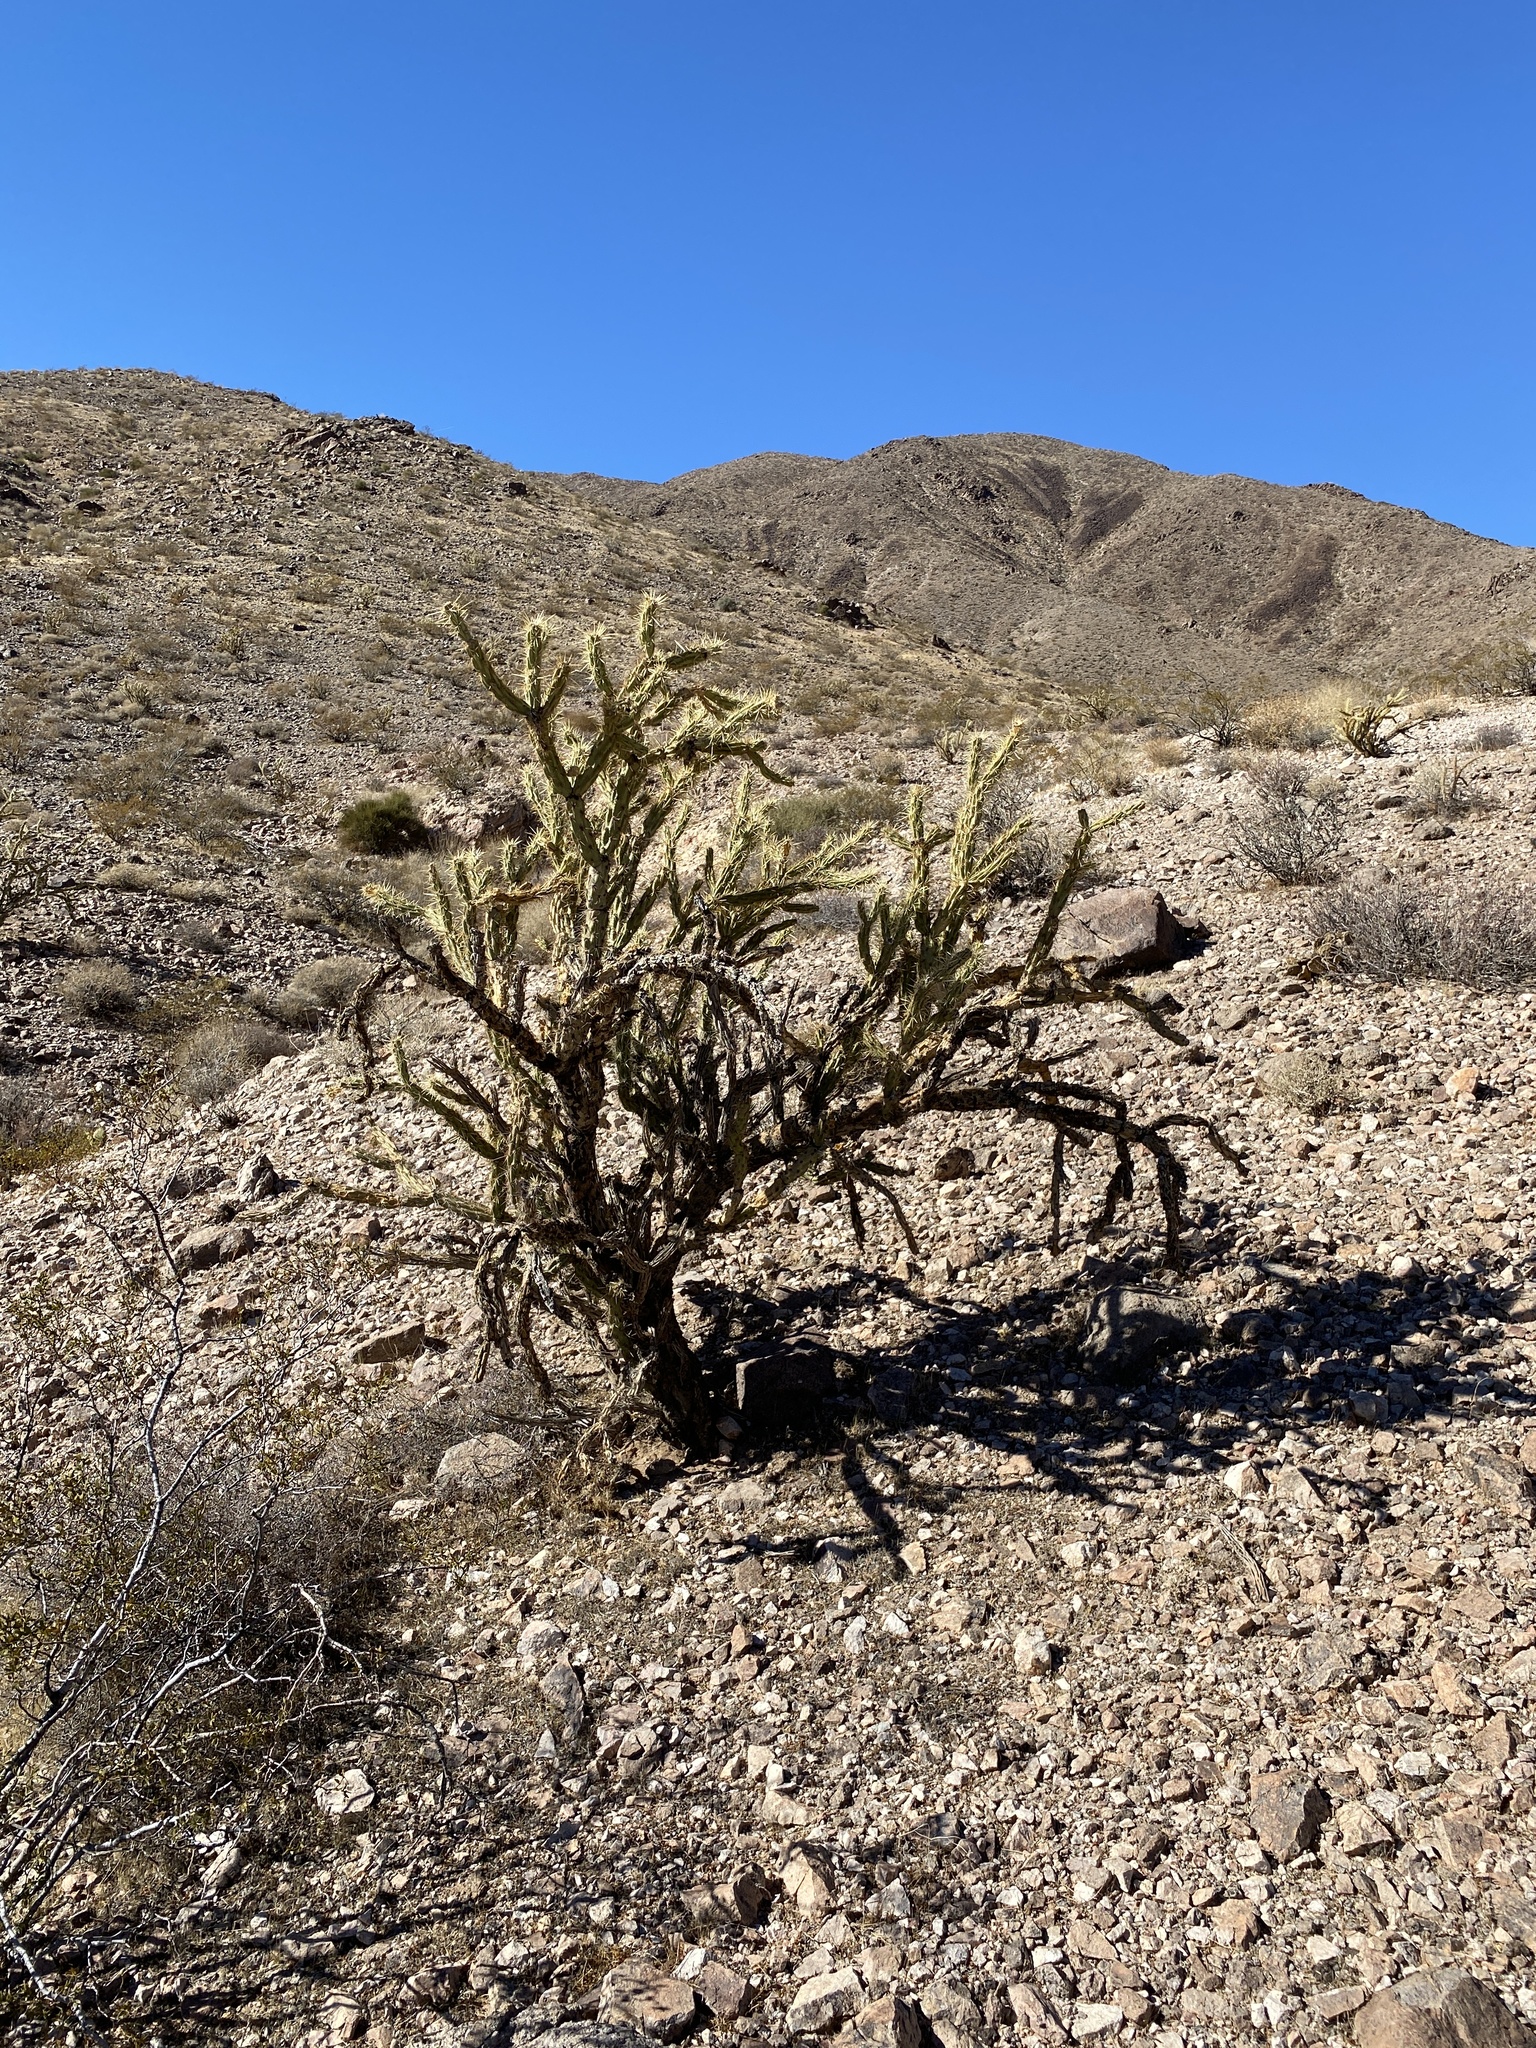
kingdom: Plantae
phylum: Tracheophyta
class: Magnoliopsida
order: Caryophyllales
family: Cactaceae
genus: Cylindropuntia
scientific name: Cylindropuntia acanthocarpa
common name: Buckhorn cholla
